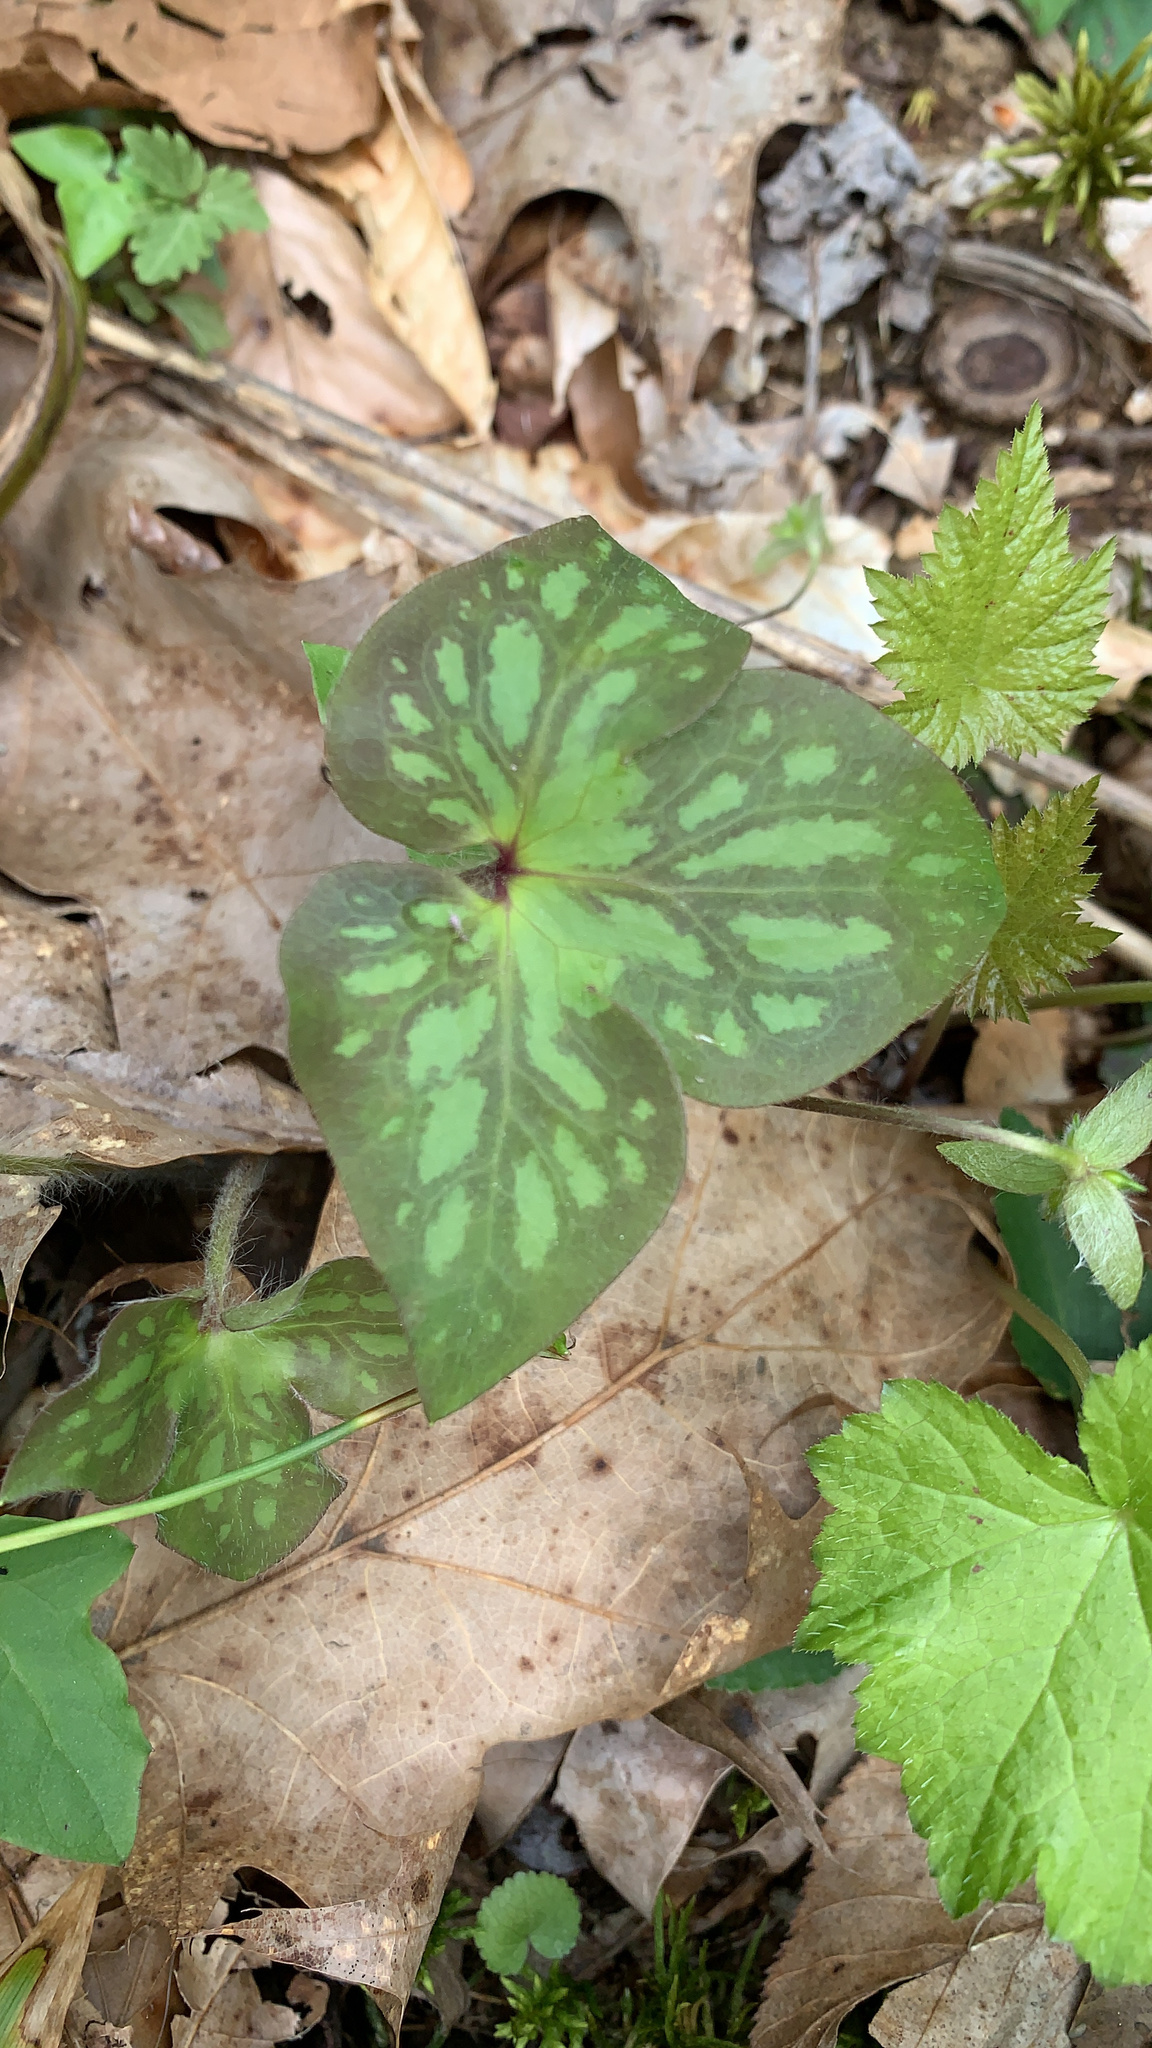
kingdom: Plantae
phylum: Tracheophyta
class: Magnoliopsida
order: Ranunculales
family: Ranunculaceae
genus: Hepatica
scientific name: Hepatica acutiloba
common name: Sharp-lobed hepatica
